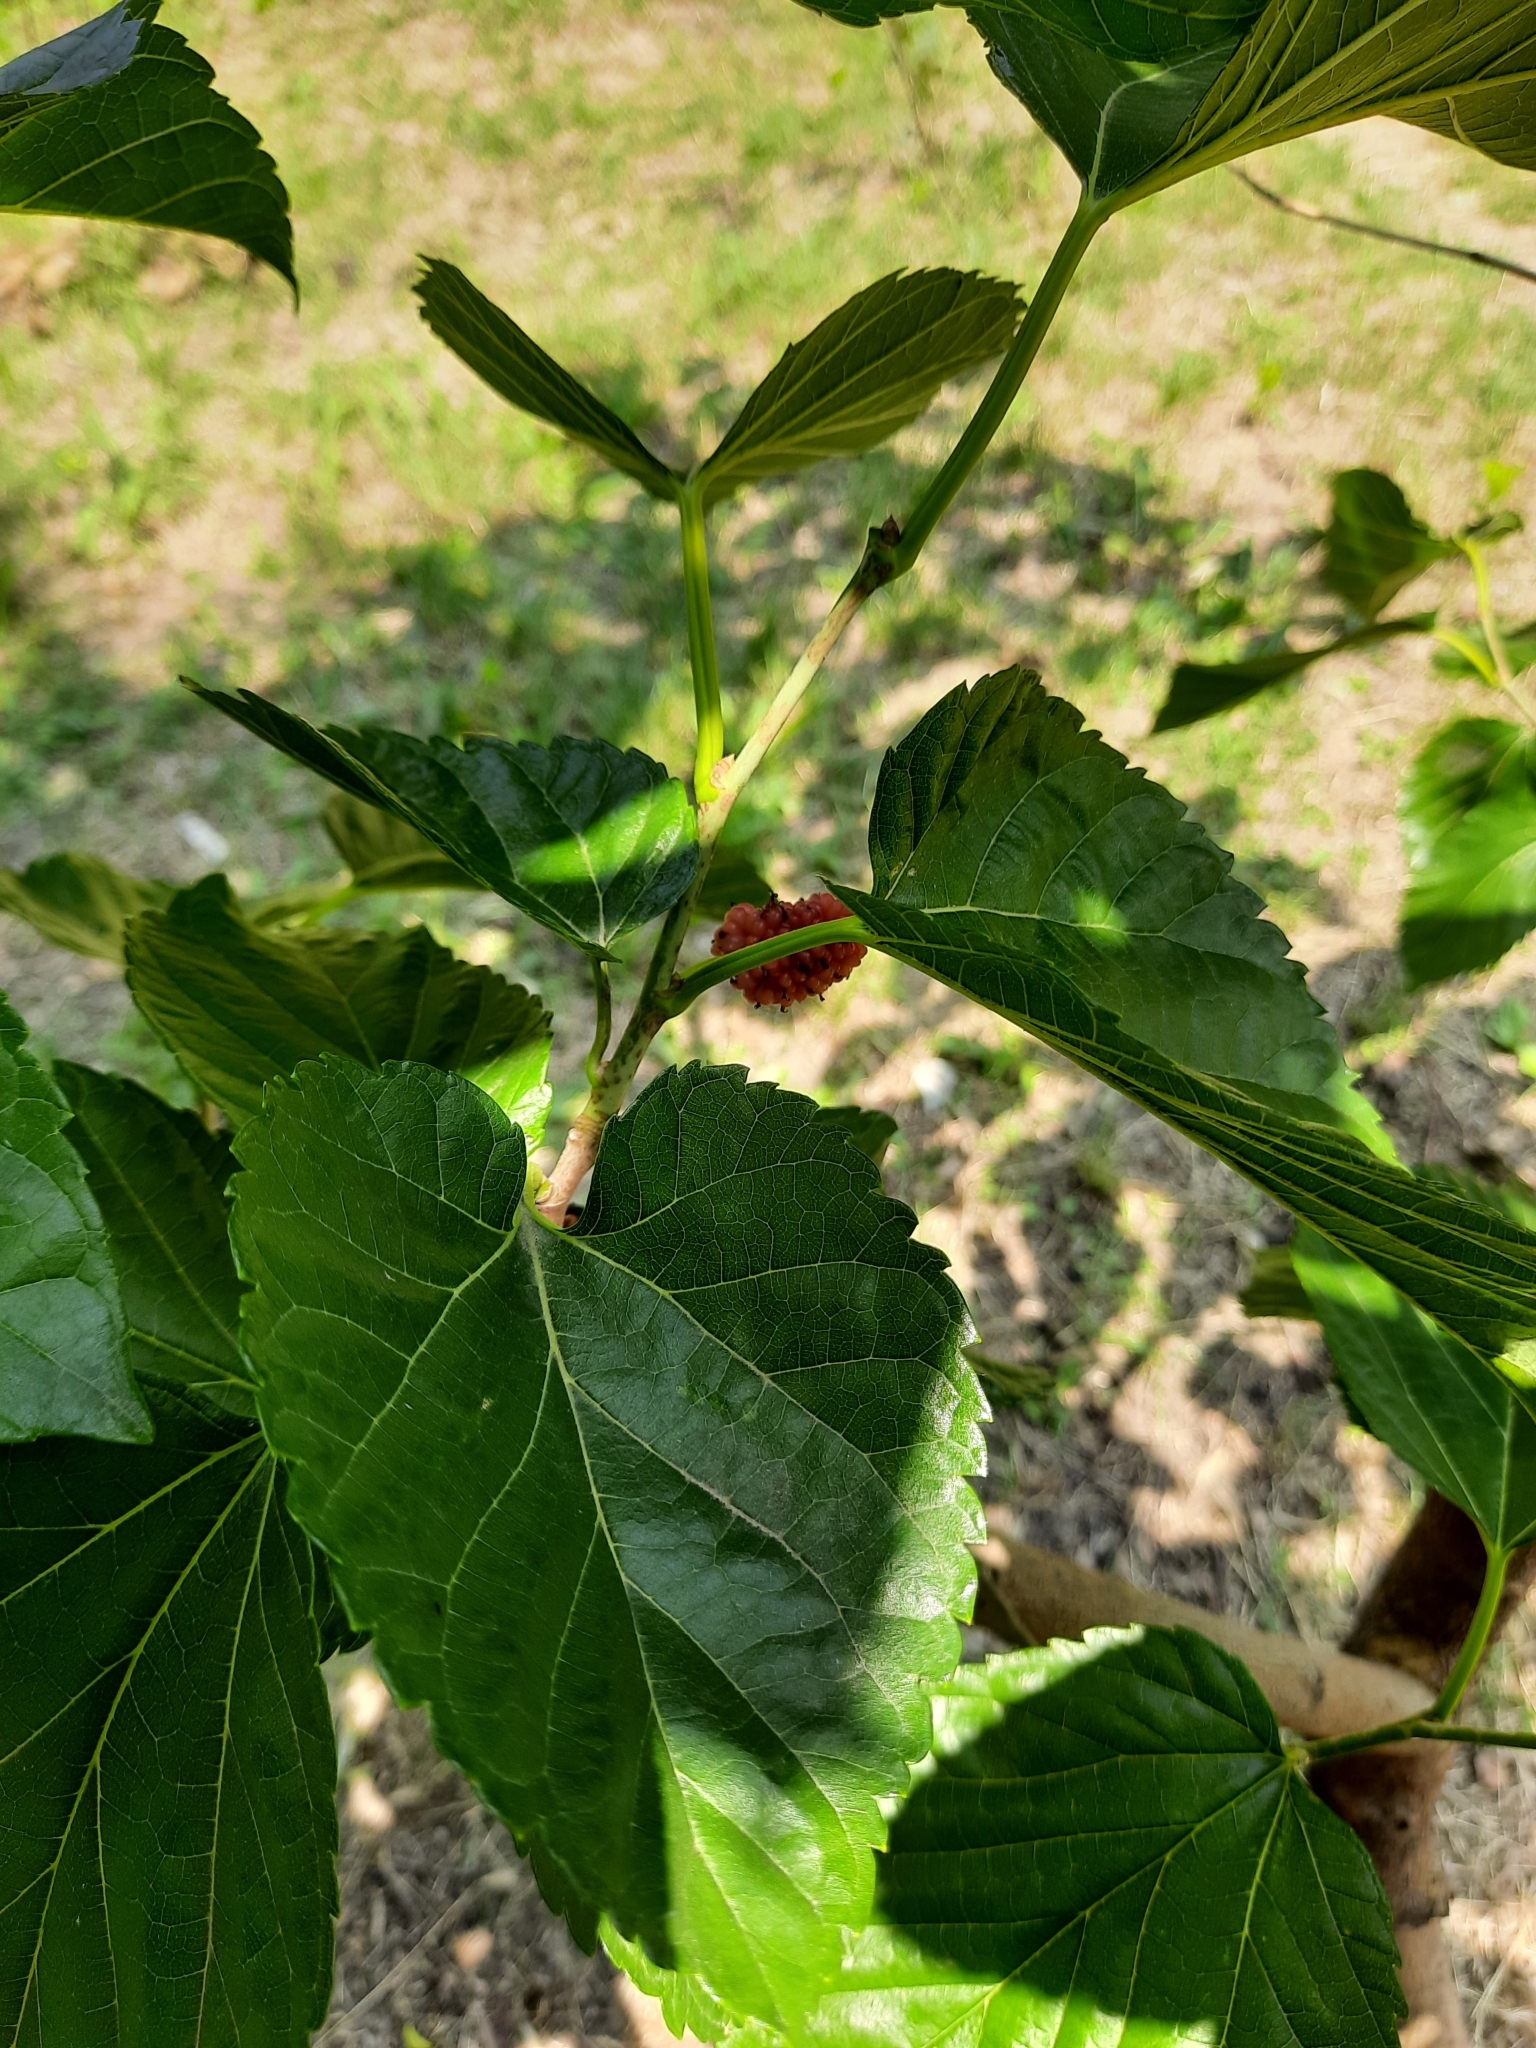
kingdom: Plantae
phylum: Tracheophyta
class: Magnoliopsida
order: Rosales
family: Moraceae
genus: Morus
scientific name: Morus alba
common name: White mulberry
